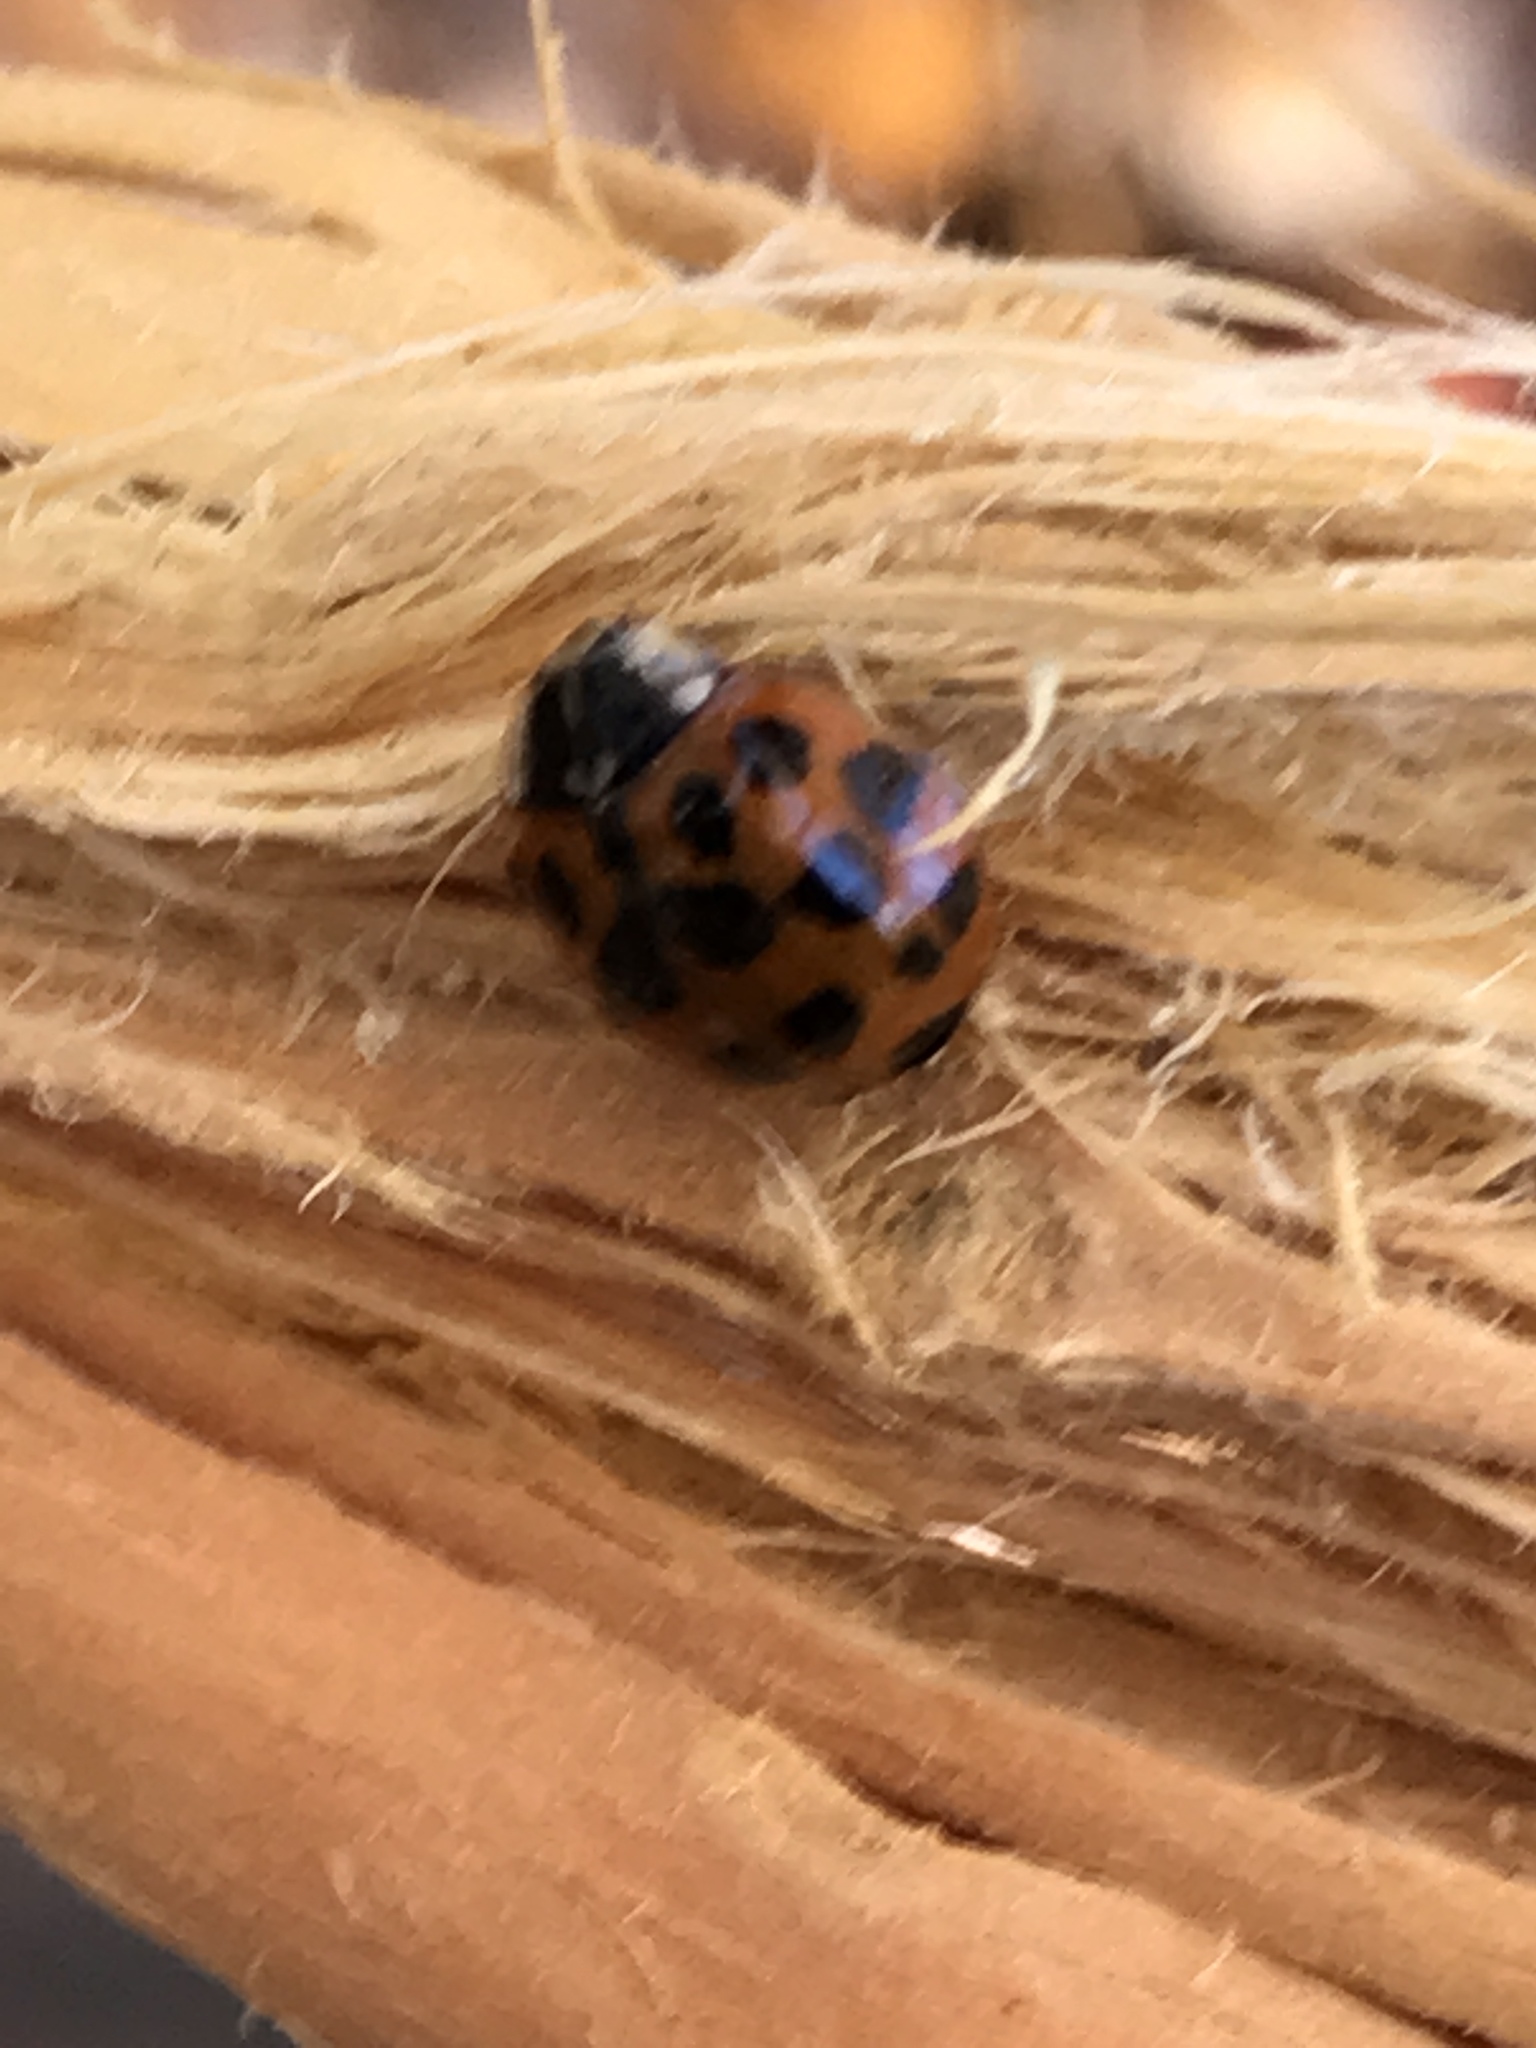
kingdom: Animalia
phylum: Arthropoda
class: Insecta
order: Coleoptera
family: Coccinellidae
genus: Harmonia
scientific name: Harmonia axyridis
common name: Harlequin ladybird
